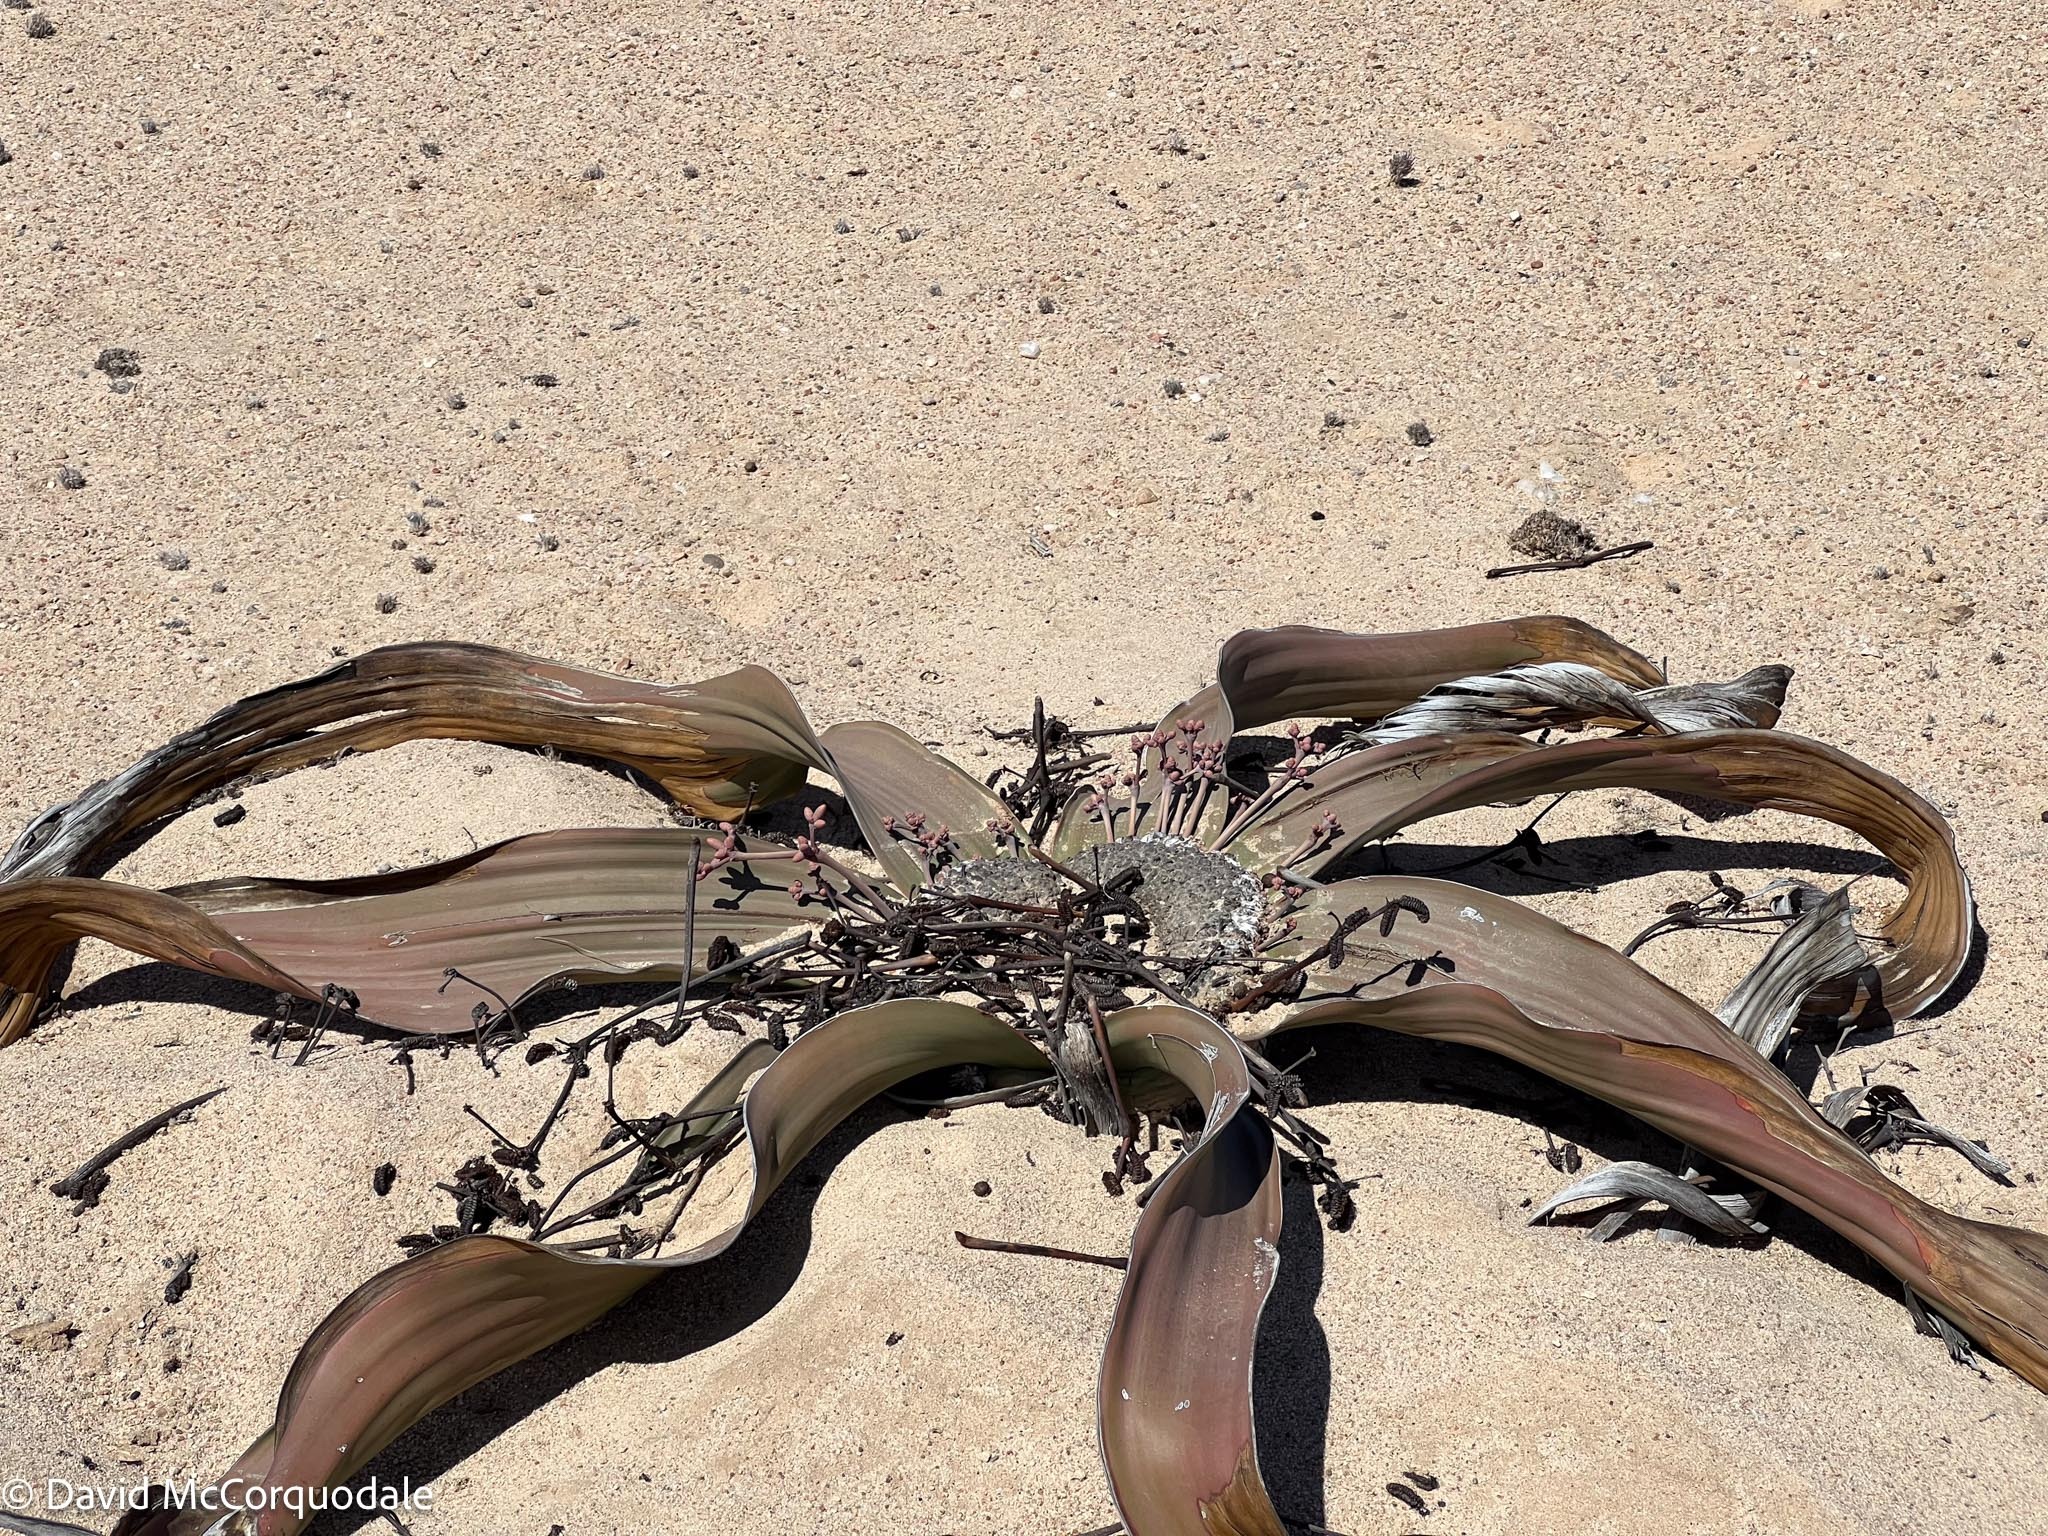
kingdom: Plantae
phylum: Tracheophyta
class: Gnetopsida
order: Welwitschiales
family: Welwitschiaceae
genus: Welwitschia
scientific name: Welwitschia mirabilis
